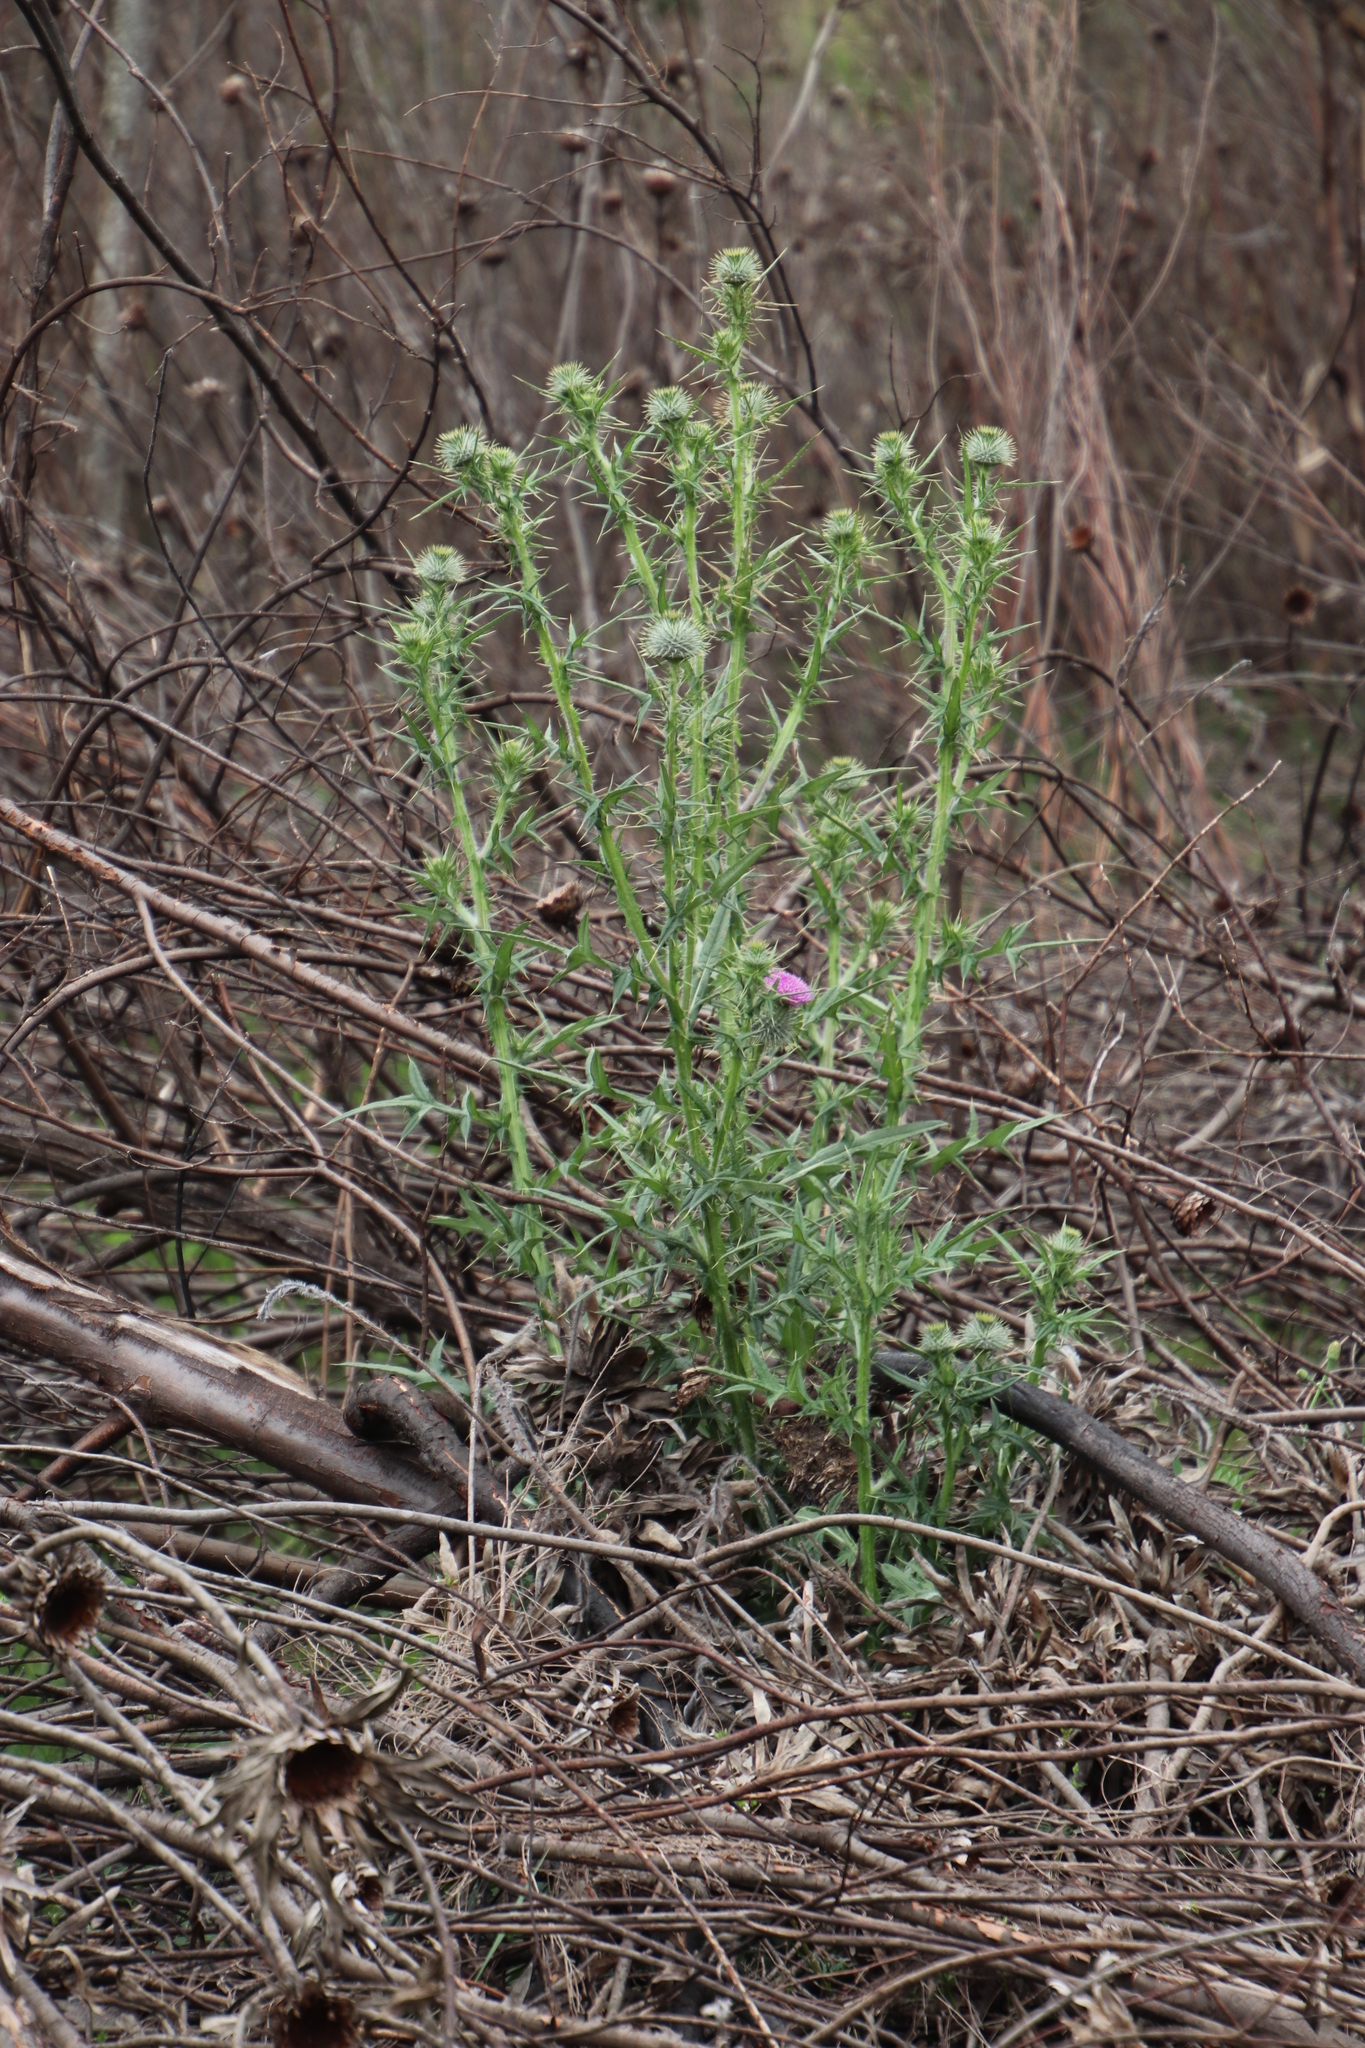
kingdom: Plantae
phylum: Tracheophyta
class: Magnoliopsida
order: Asterales
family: Asteraceae
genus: Cirsium
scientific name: Cirsium vulgare
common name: Bull thistle
